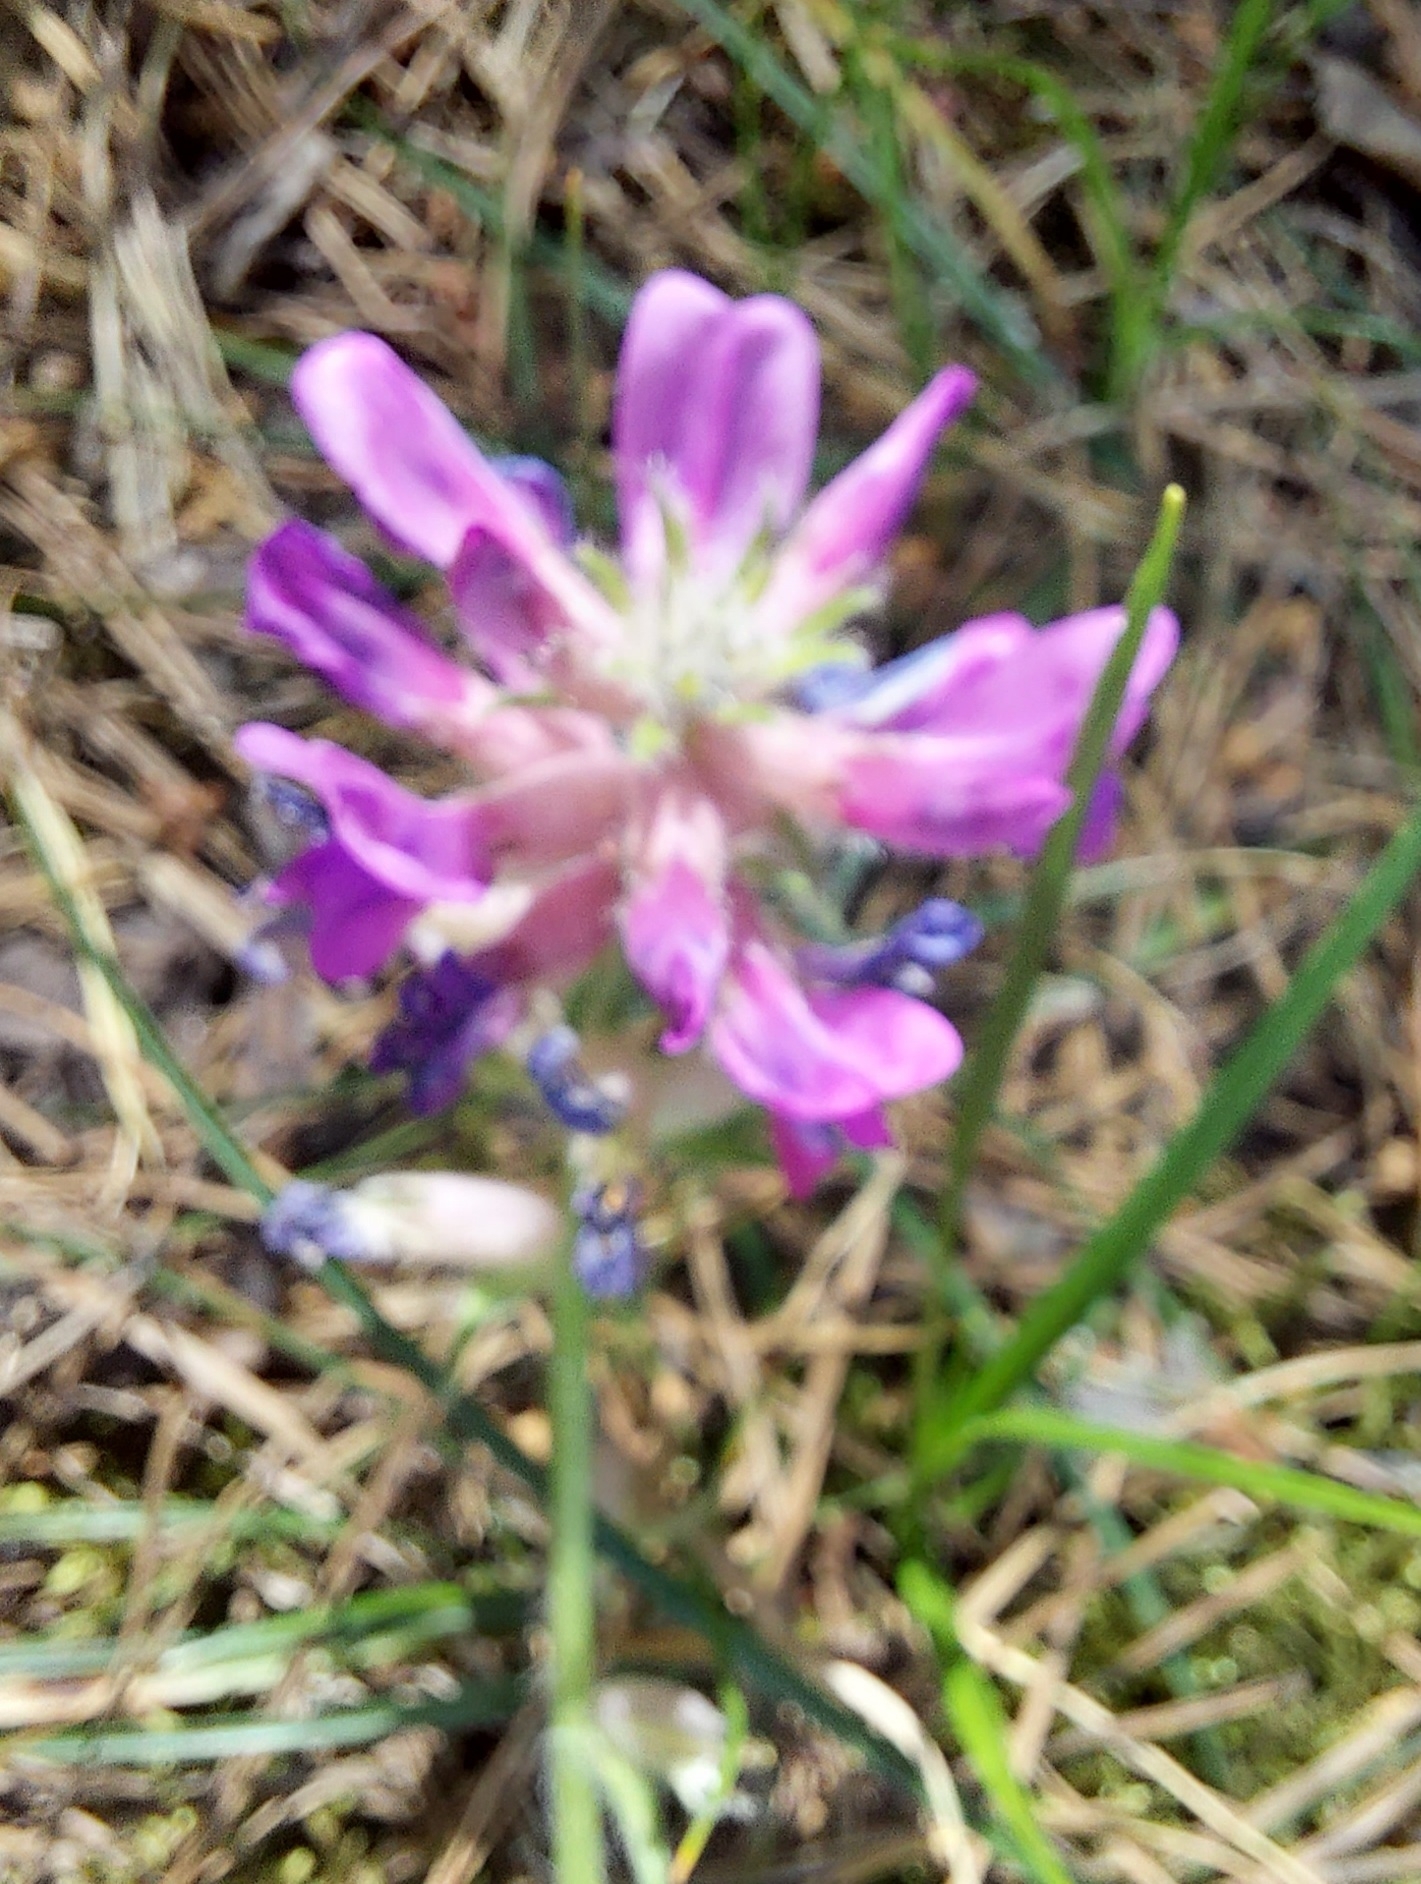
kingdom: Plantae
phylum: Tracheophyta
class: Magnoliopsida
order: Fabales
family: Fabaceae
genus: Oxytropis
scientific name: Oxytropis campanulata
